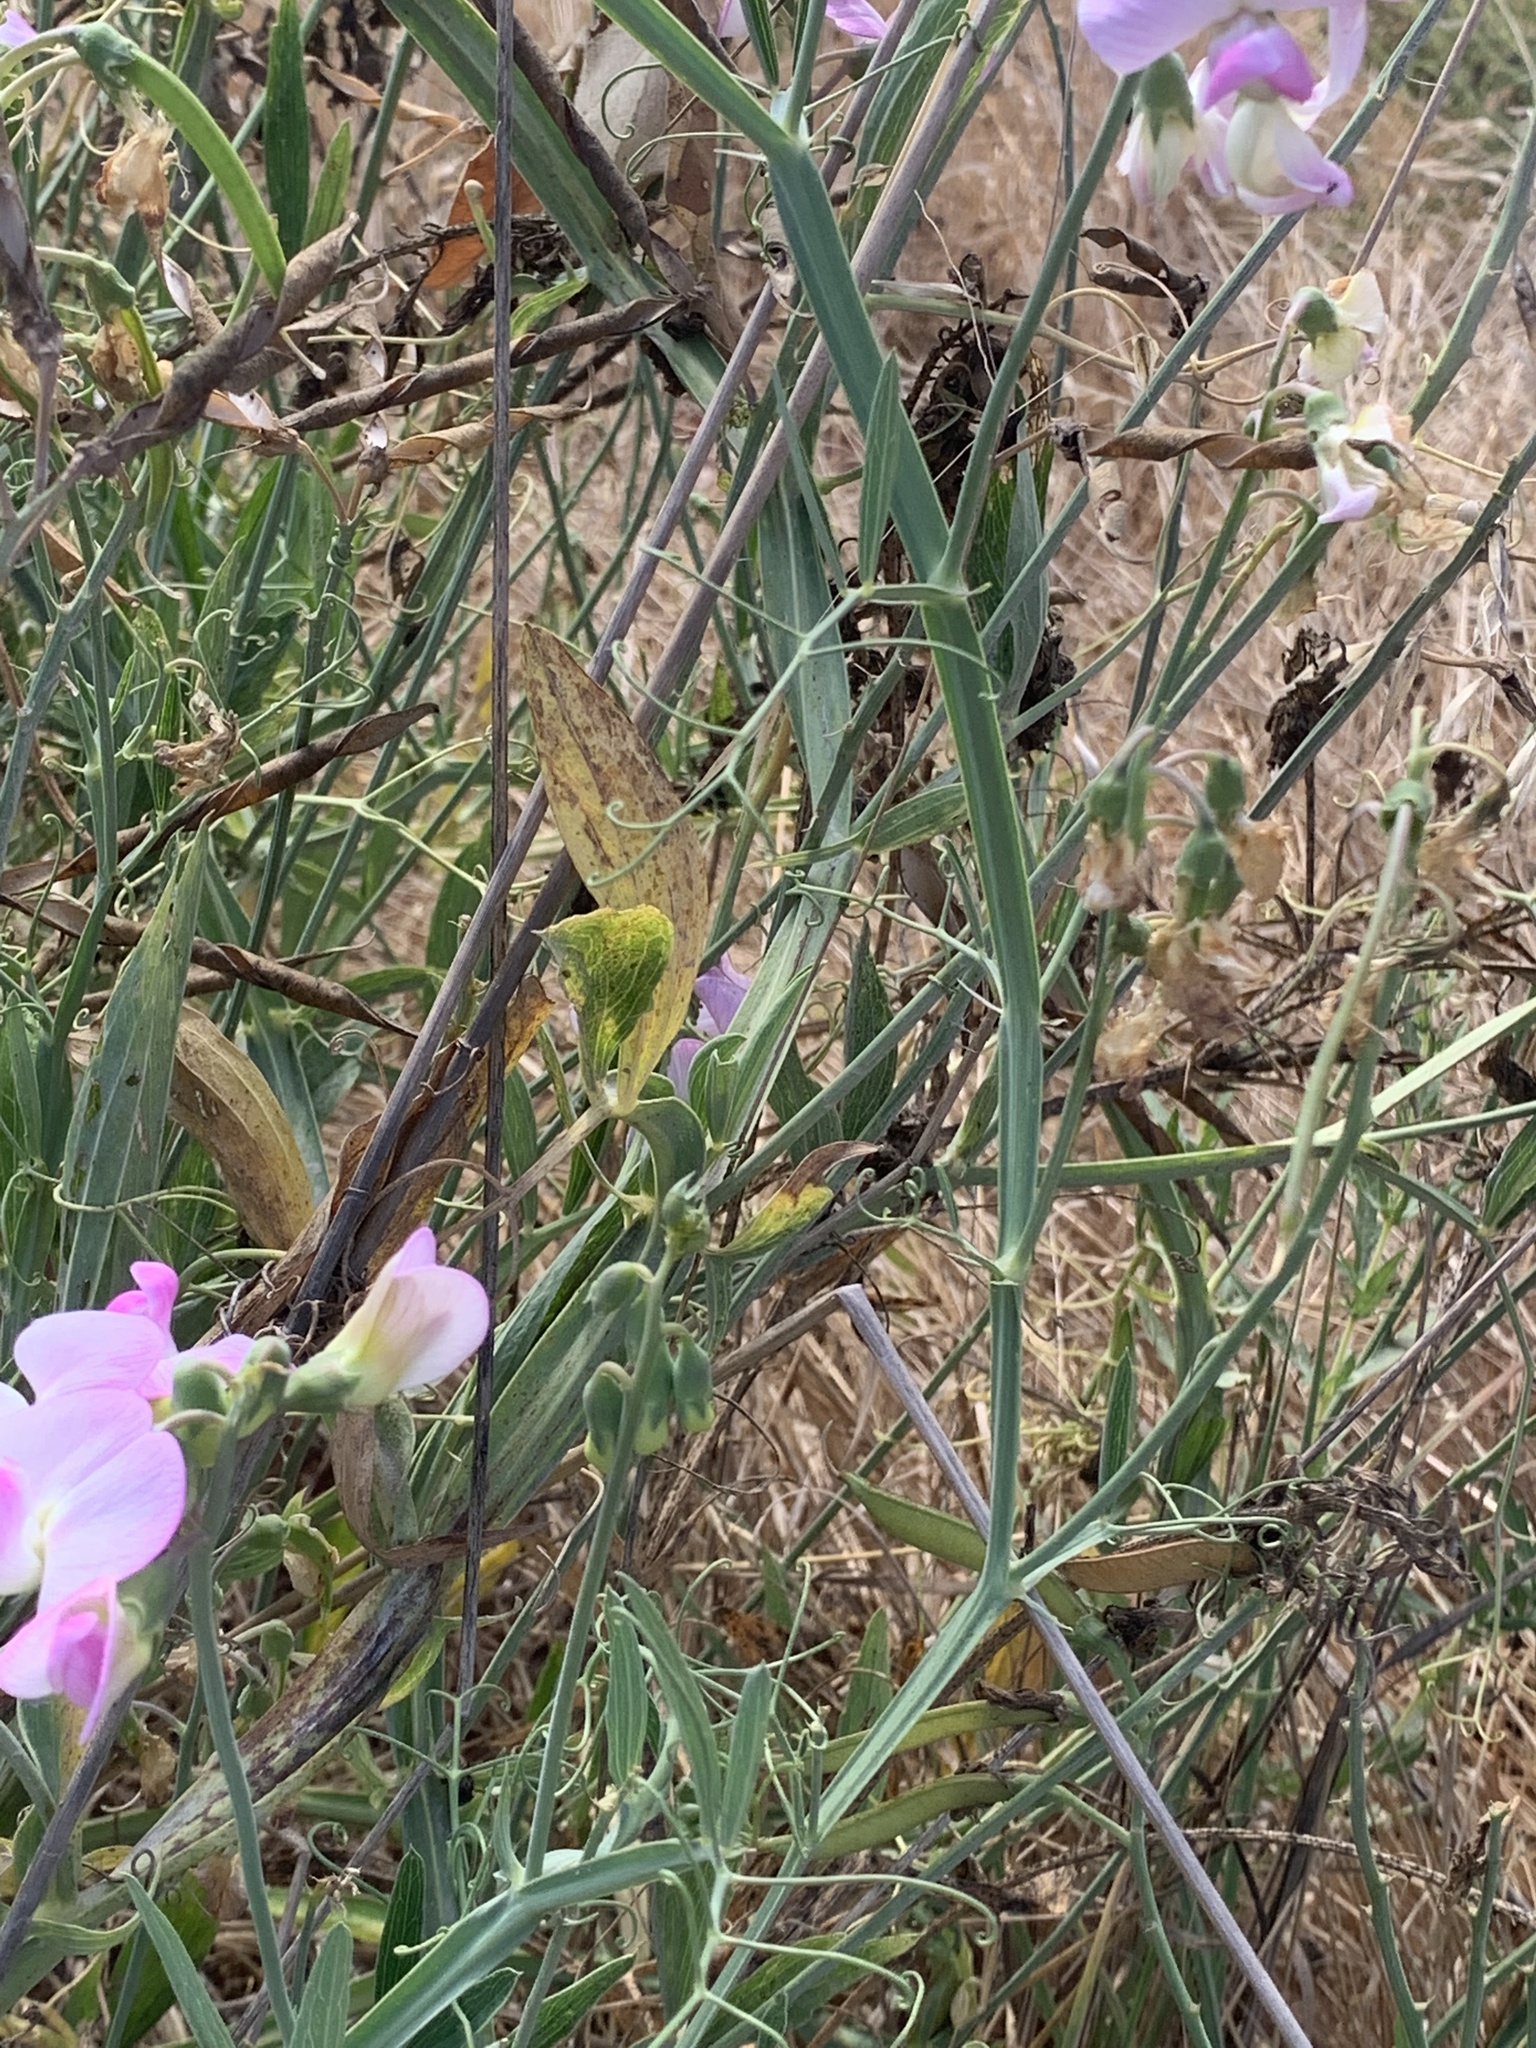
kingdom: Plantae
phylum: Tracheophyta
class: Magnoliopsida
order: Fabales
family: Fabaceae
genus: Lathyrus
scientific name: Lathyrus latifolius
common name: Perennial pea
